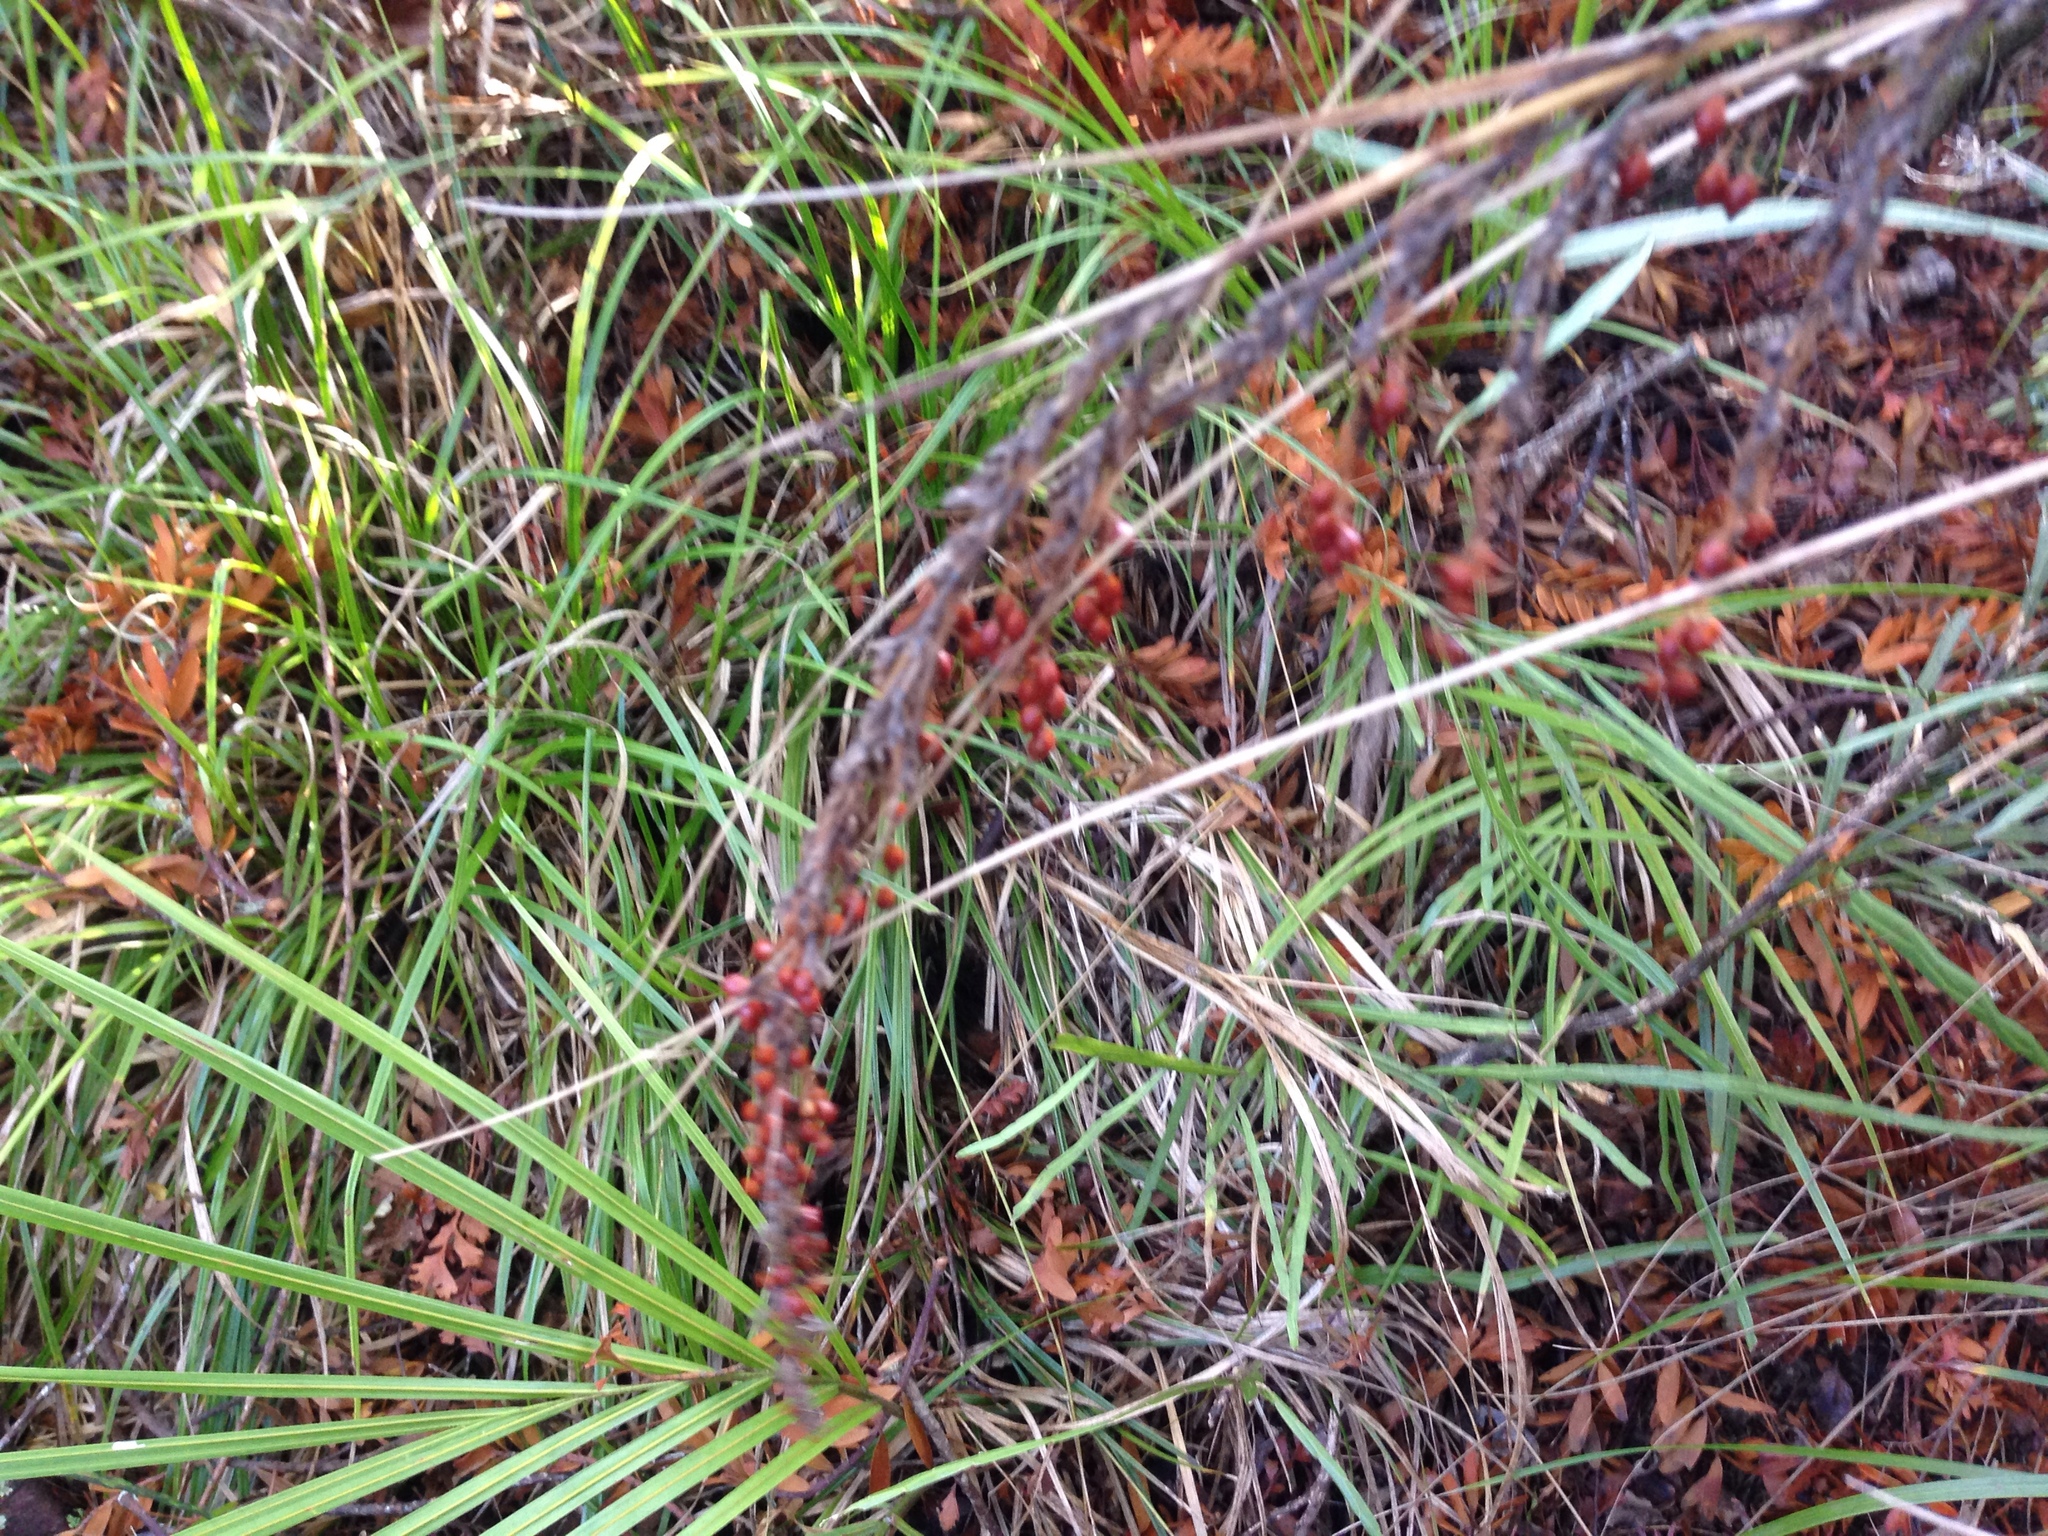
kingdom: Plantae
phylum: Tracheophyta
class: Liliopsida
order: Poales
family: Cyperaceae
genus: Gahnia
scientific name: Gahnia pauciflora
